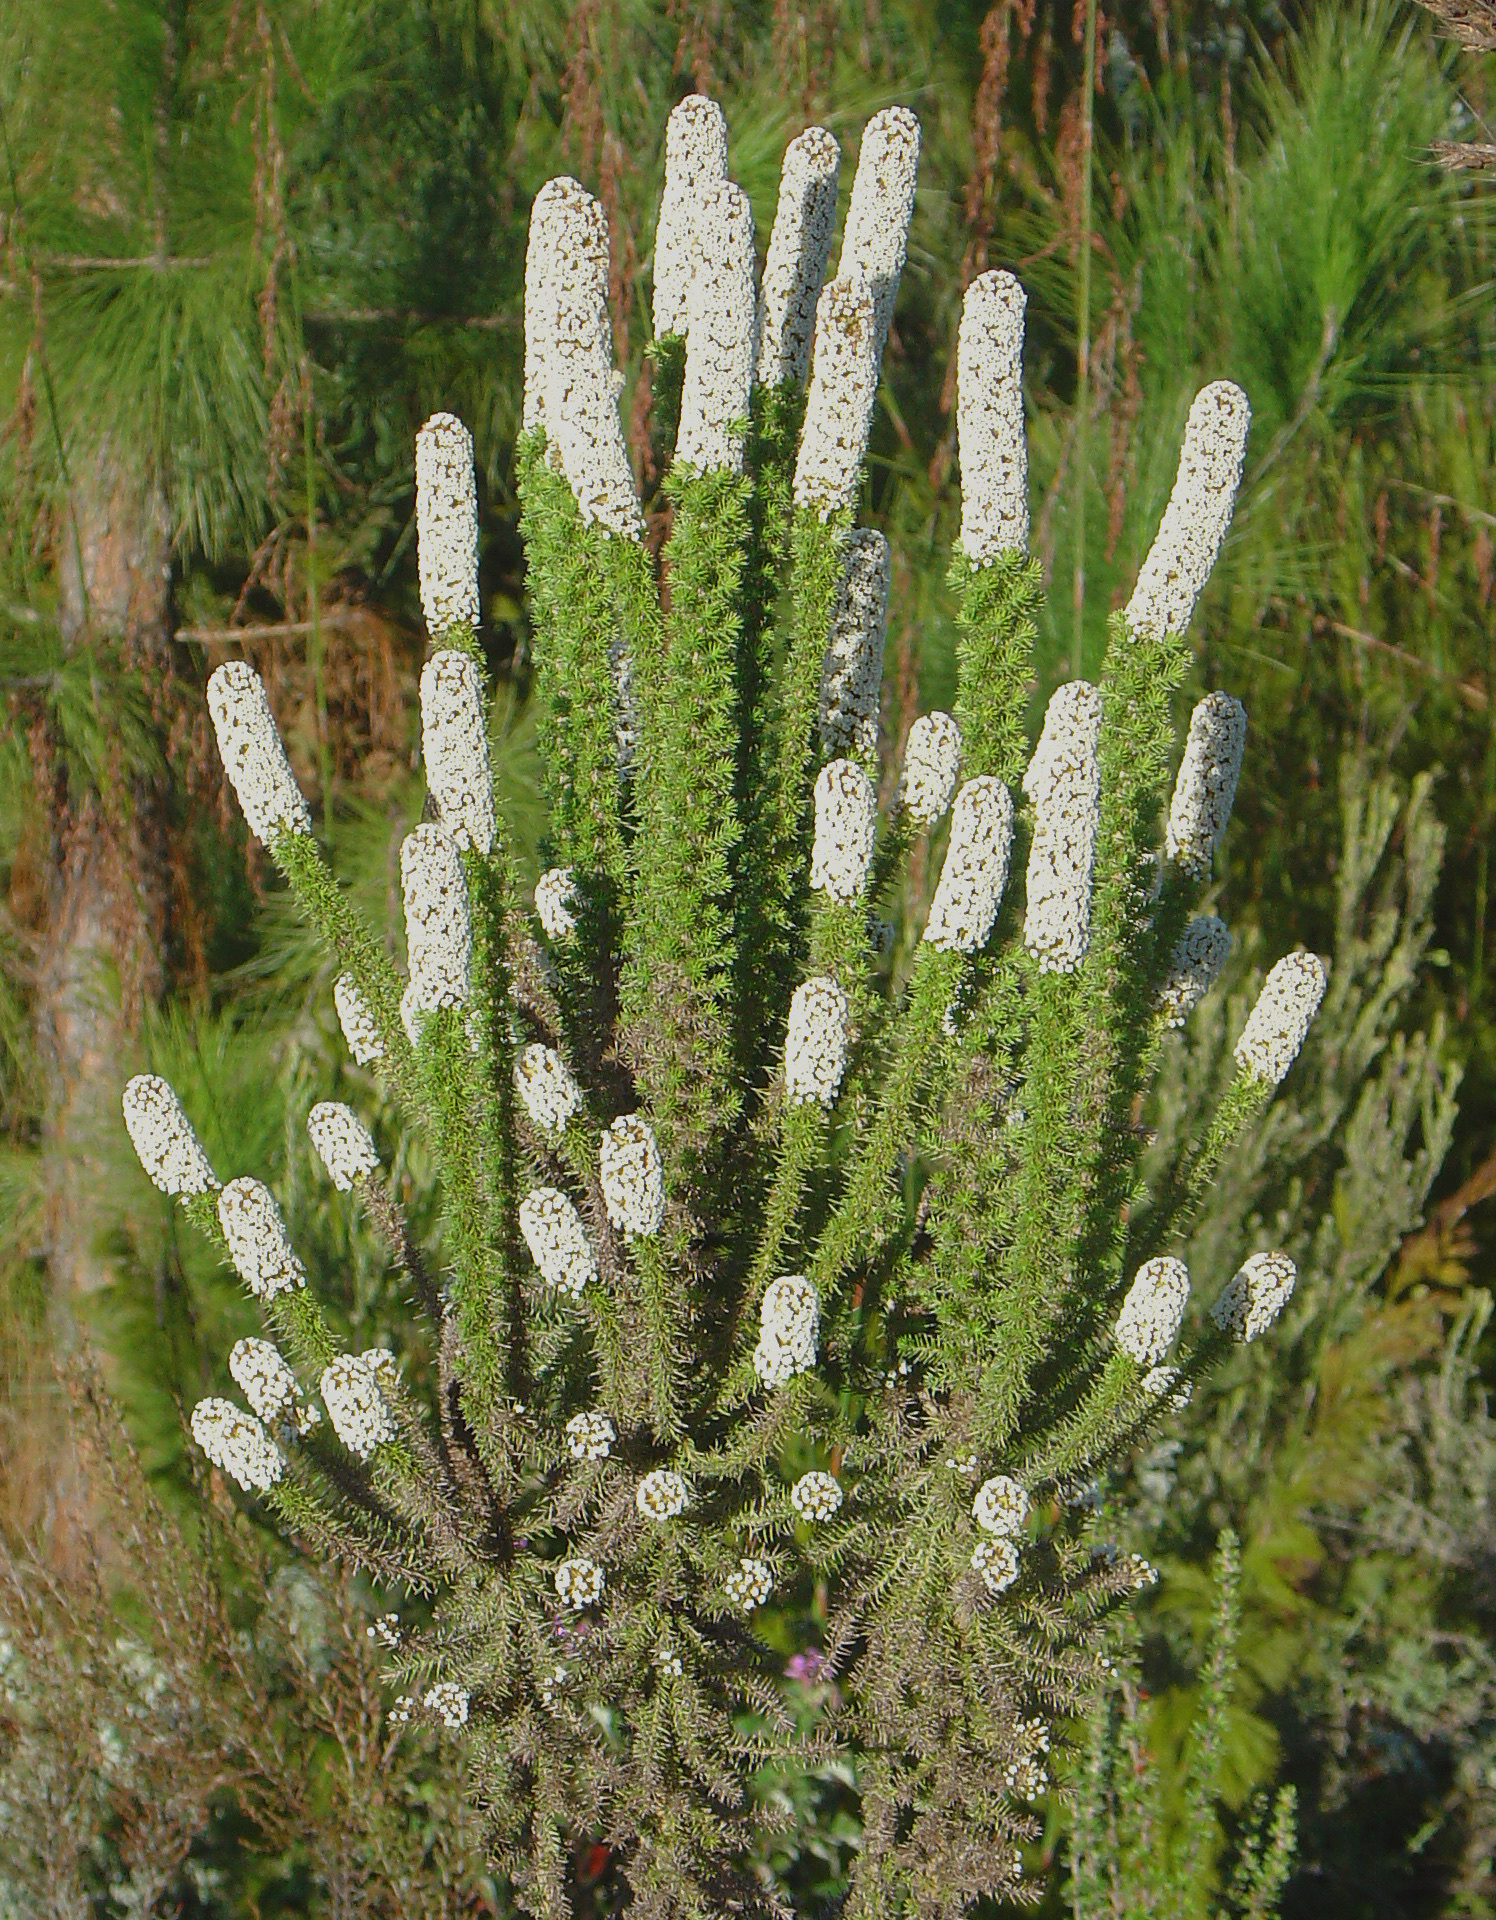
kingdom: Plantae
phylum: Tracheophyta
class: Magnoliopsida
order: Asterales
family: Asteraceae
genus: Stoebe
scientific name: Stoebe alopecuroides
